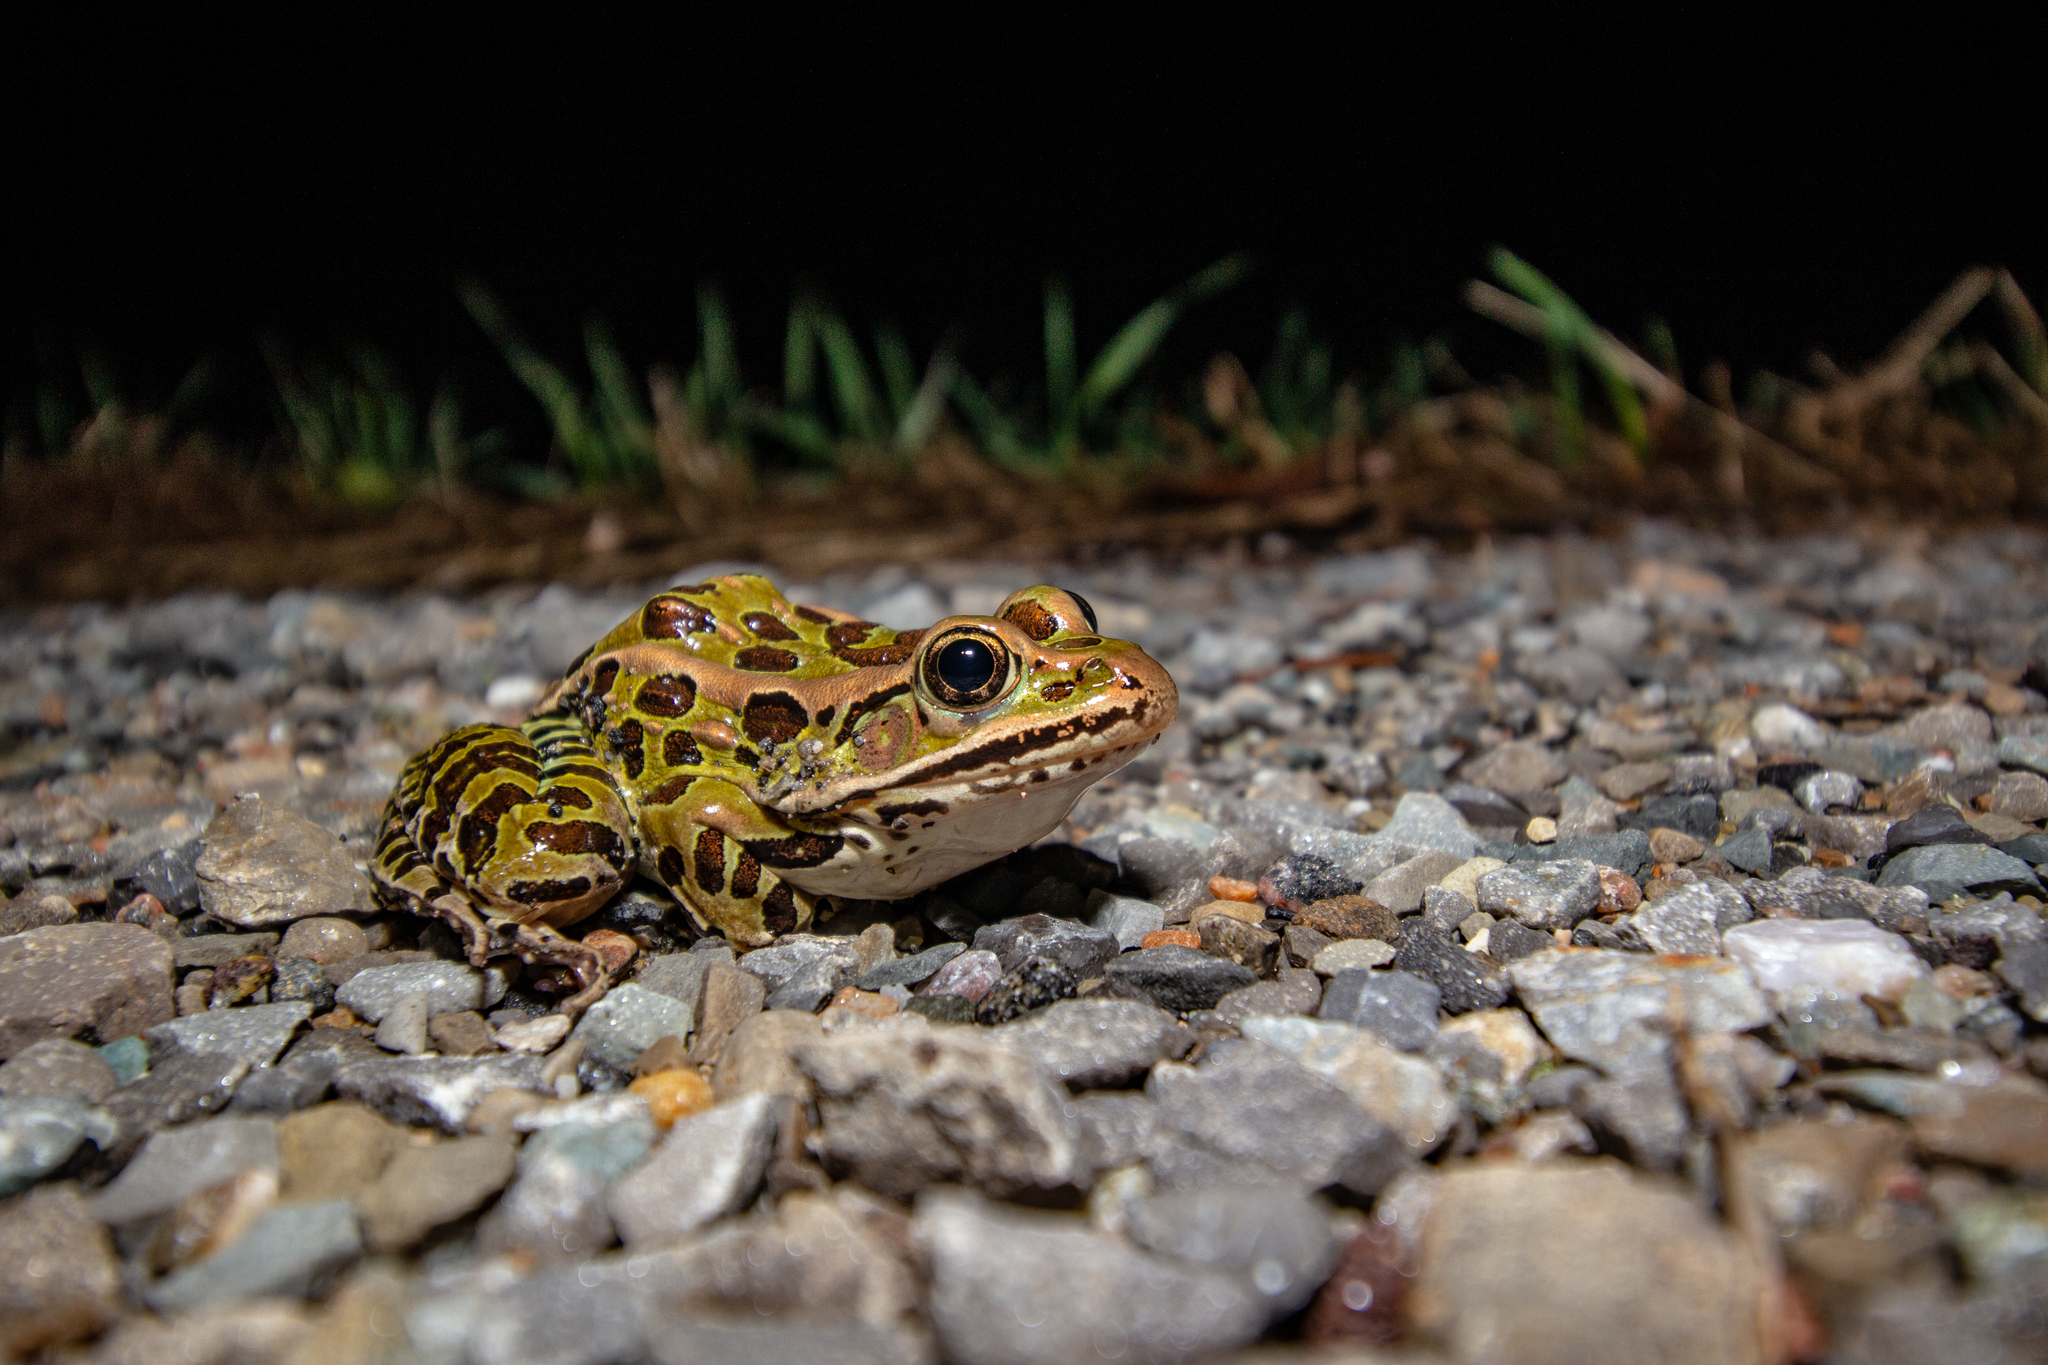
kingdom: Animalia
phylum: Chordata
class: Amphibia
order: Anura
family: Ranidae
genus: Lithobates
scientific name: Lithobates pipiens
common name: Northern leopard frog
